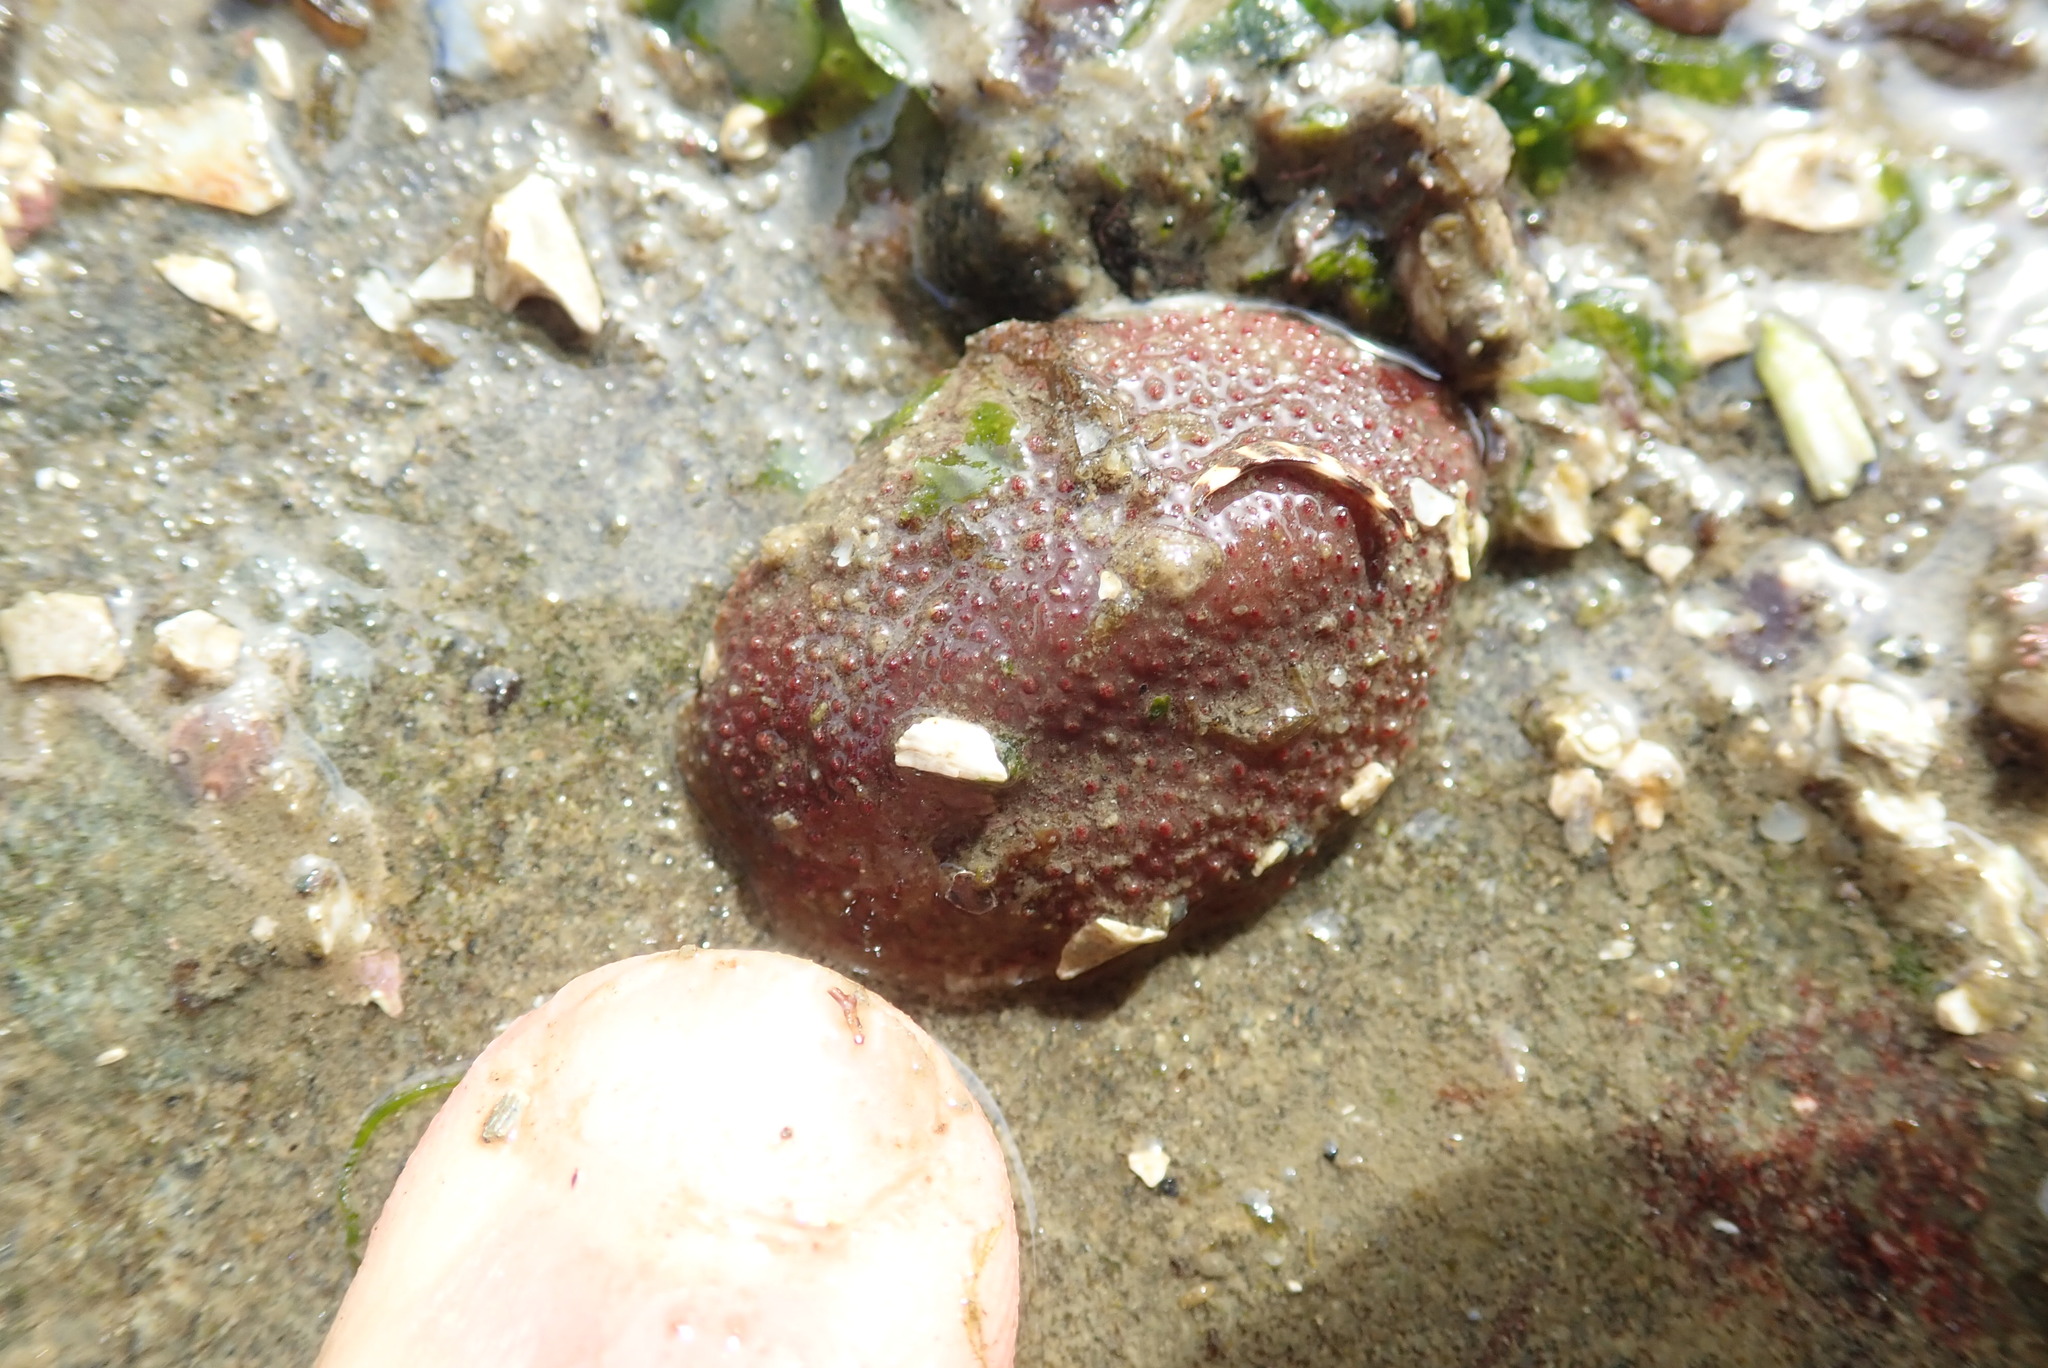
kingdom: Animalia
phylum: Mollusca
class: Polyplacophora
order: Chitonida
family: Acanthochitonidae
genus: Cryptochiton
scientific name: Cryptochiton stelleri
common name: Giant pacific chiton
